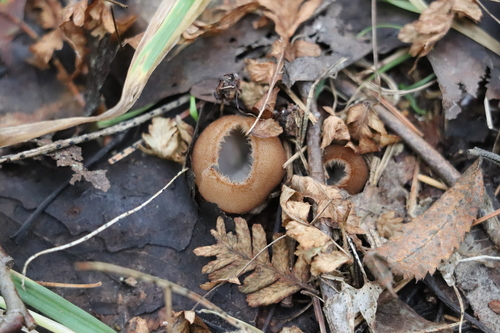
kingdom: Fungi
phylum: Ascomycota
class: Pezizomycetes
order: Pezizales
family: Pyronemataceae
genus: Humaria
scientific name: Humaria hemisphaerica
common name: Glazed cup
